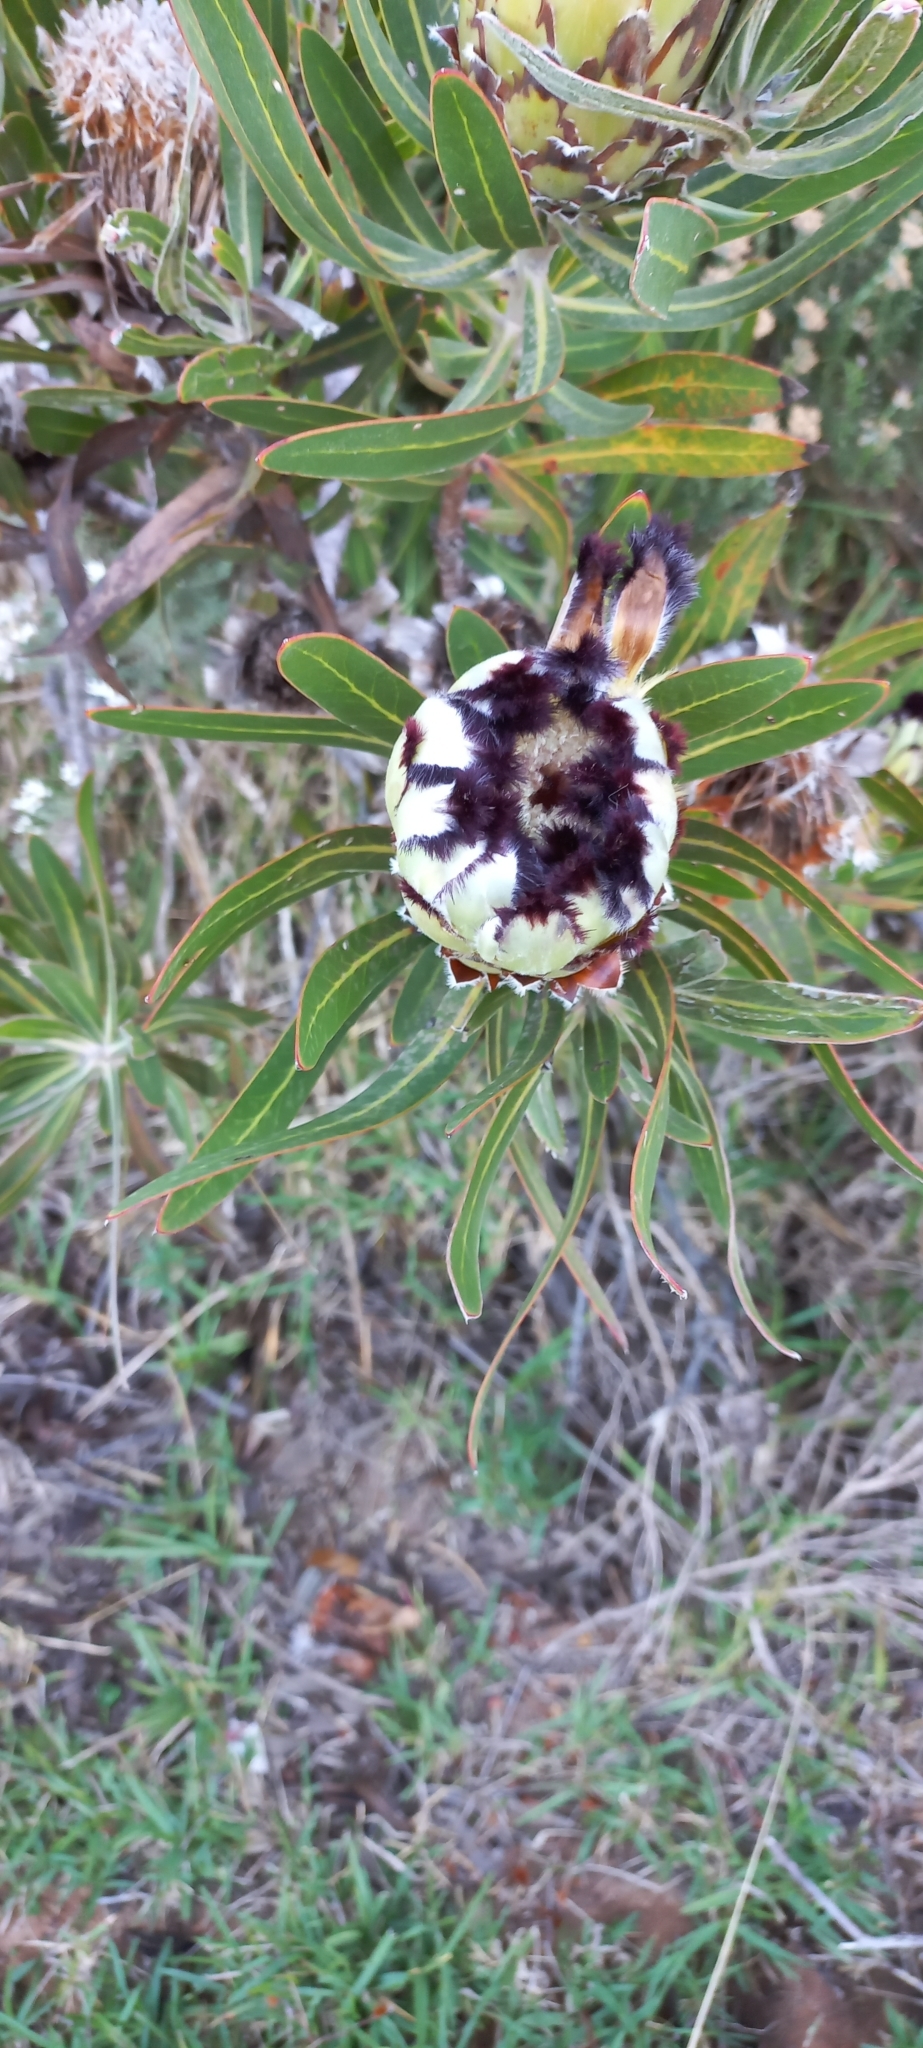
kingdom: Plantae
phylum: Tracheophyta
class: Magnoliopsida
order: Proteales
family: Proteaceae
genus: Protea
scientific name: Protea
